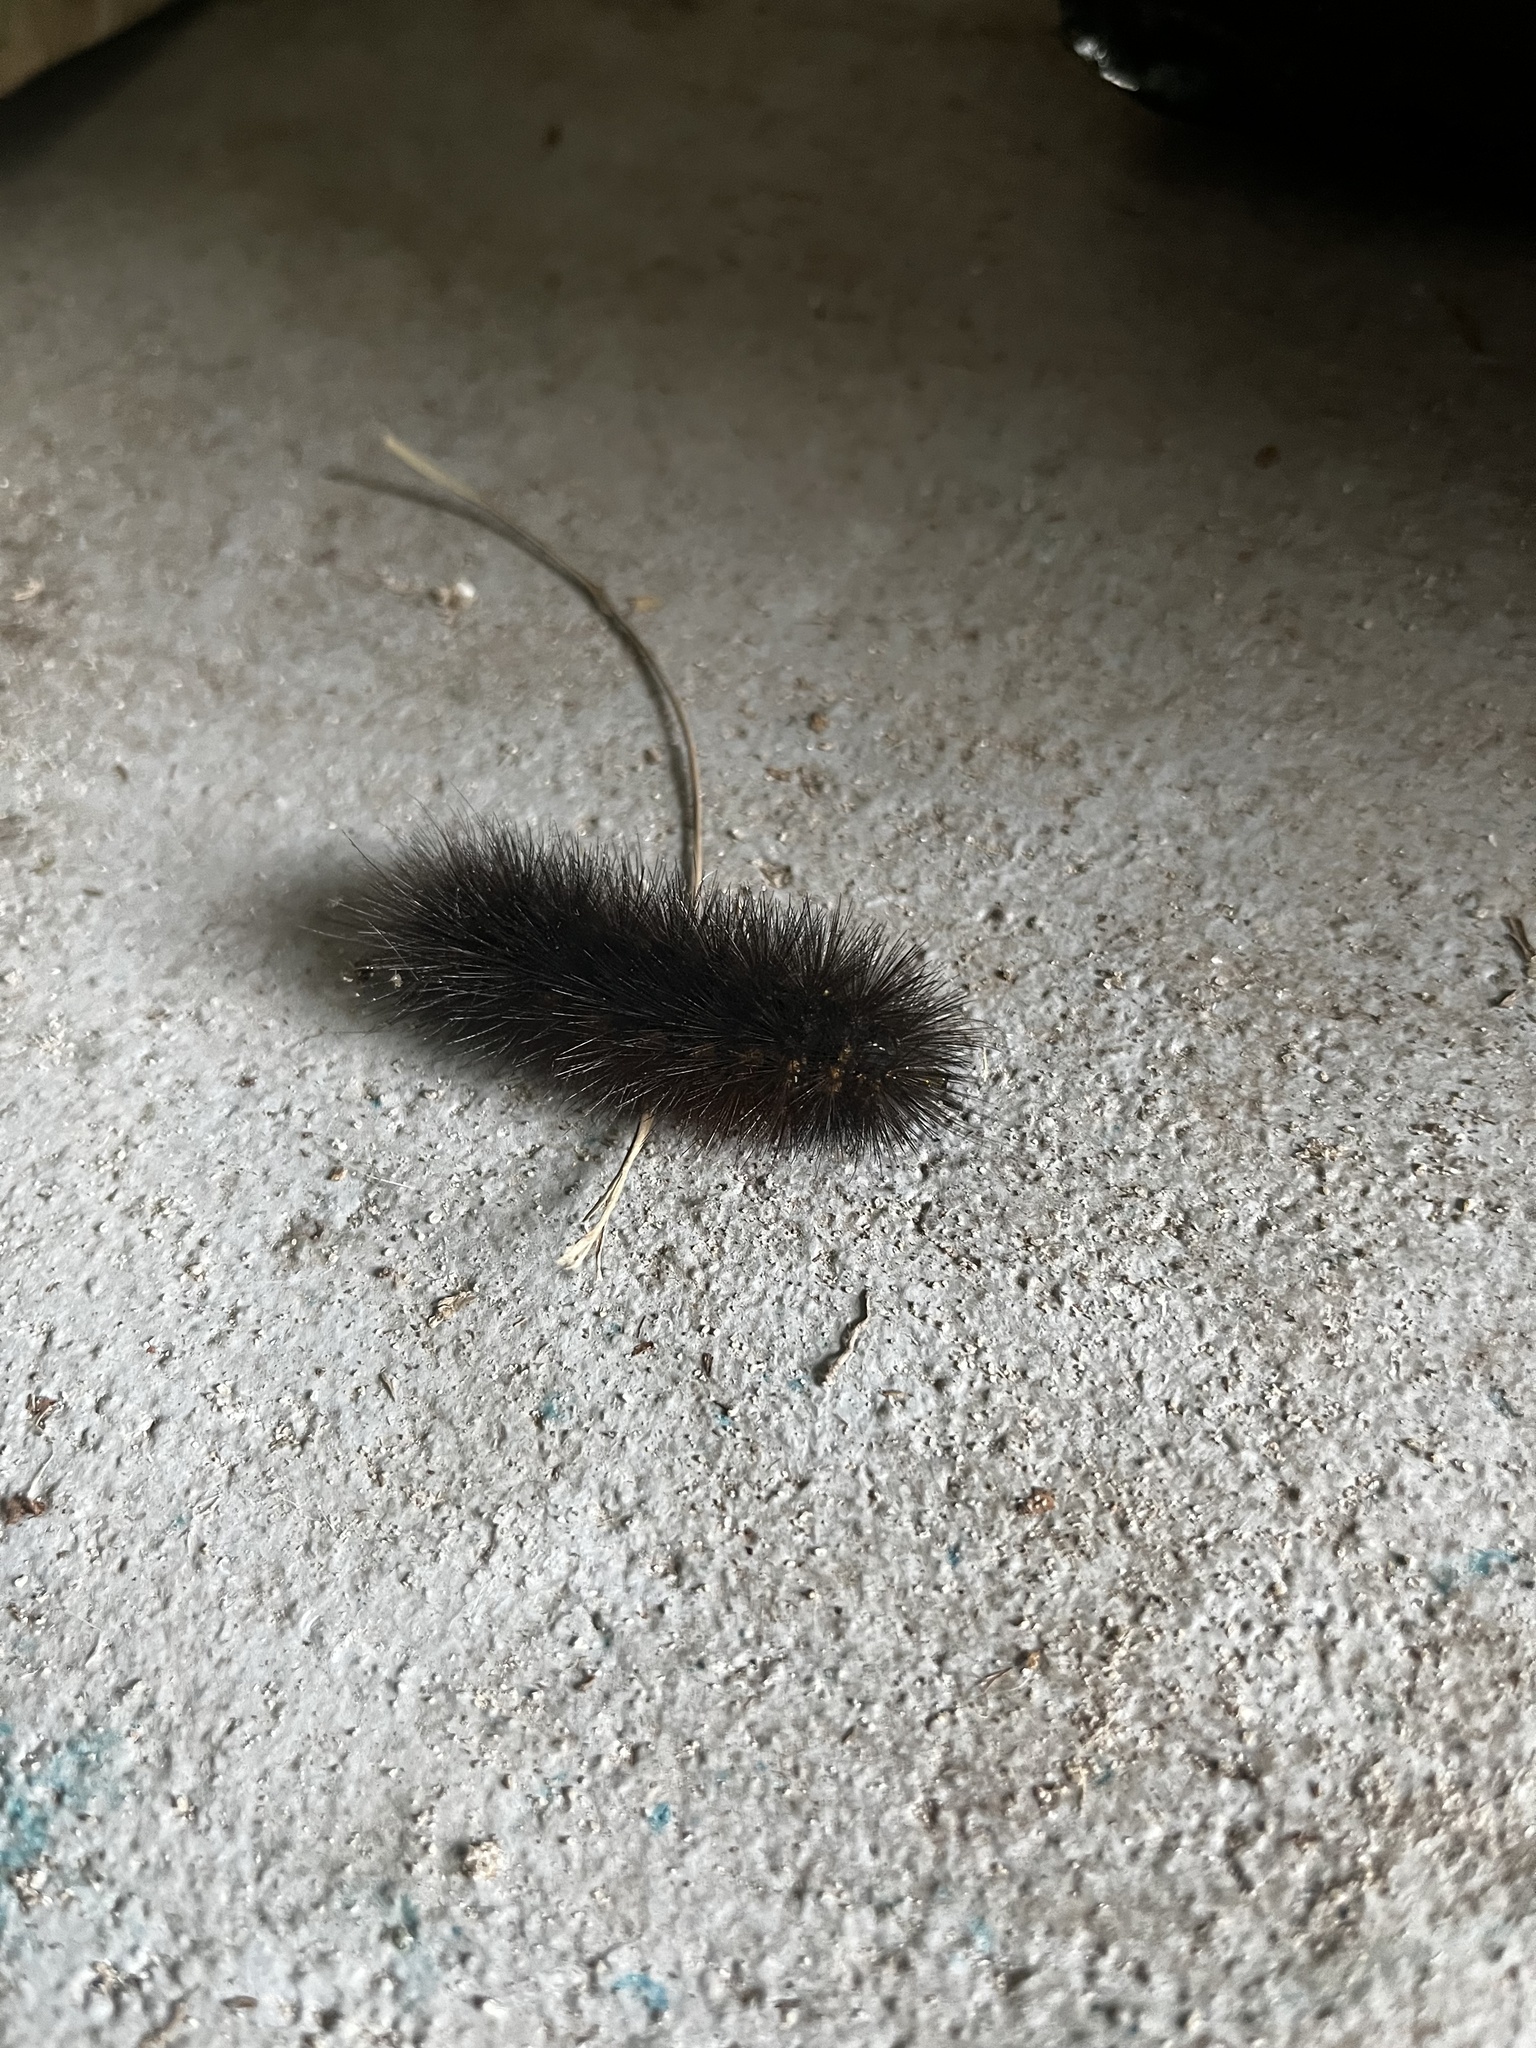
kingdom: Animalia
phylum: Arthropoda
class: Insecta
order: Lepidoptera
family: Erebidae
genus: Estigmene
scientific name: Estigmene acrea
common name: Salt marsh moth
